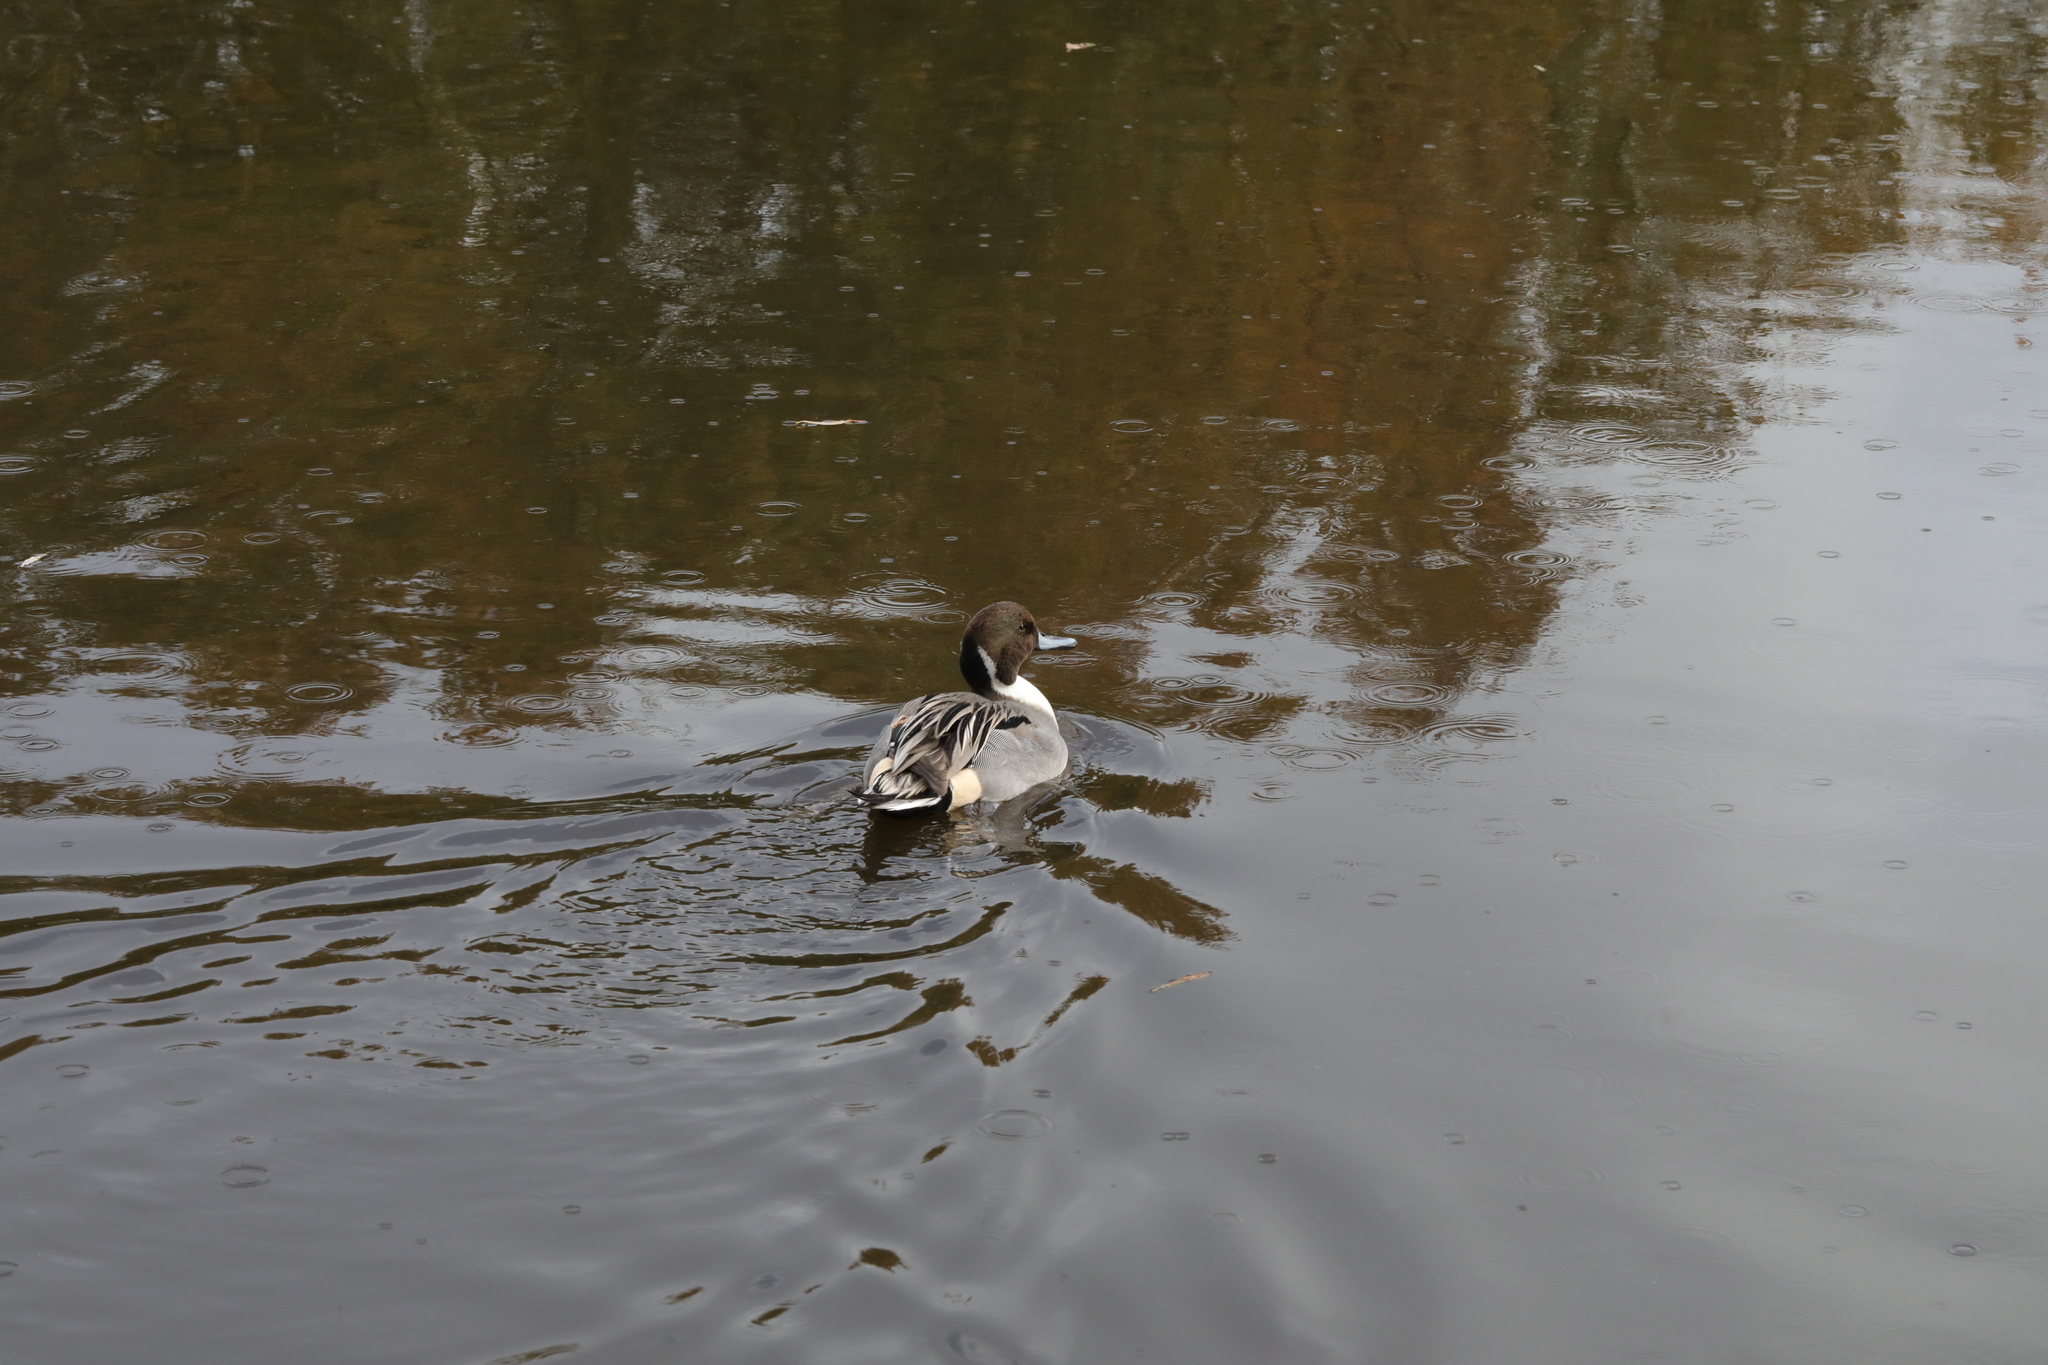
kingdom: Animalia
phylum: Chordata
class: Aves
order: Anseriformes
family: Anatidae
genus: Anas
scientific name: Anas acuta
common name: Northern pintail
